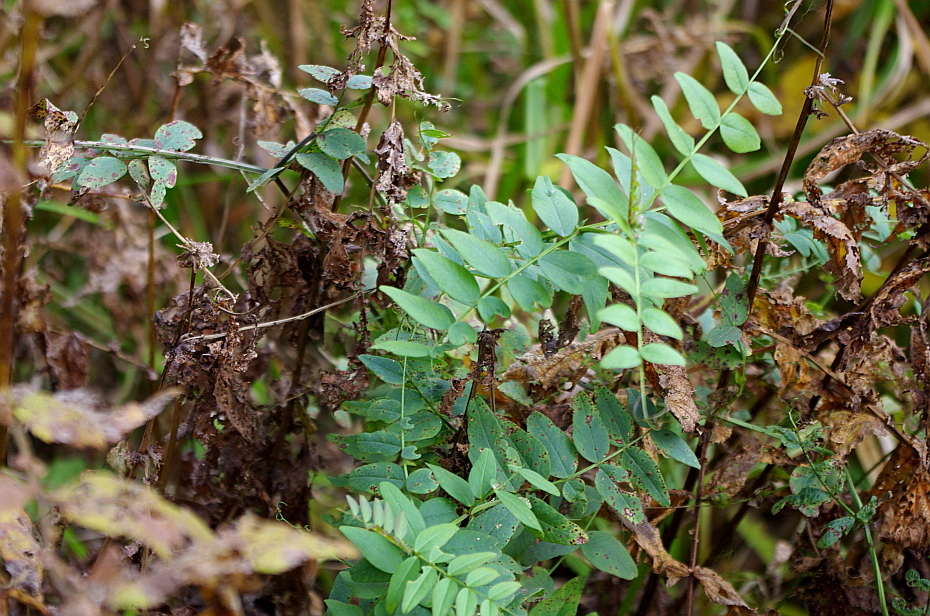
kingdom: Plantae
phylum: Tracheophyta
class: Magnoliopsida
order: Fabales
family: Fabaceae
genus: Vicia
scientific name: Vicia sepium
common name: Bush vetch
